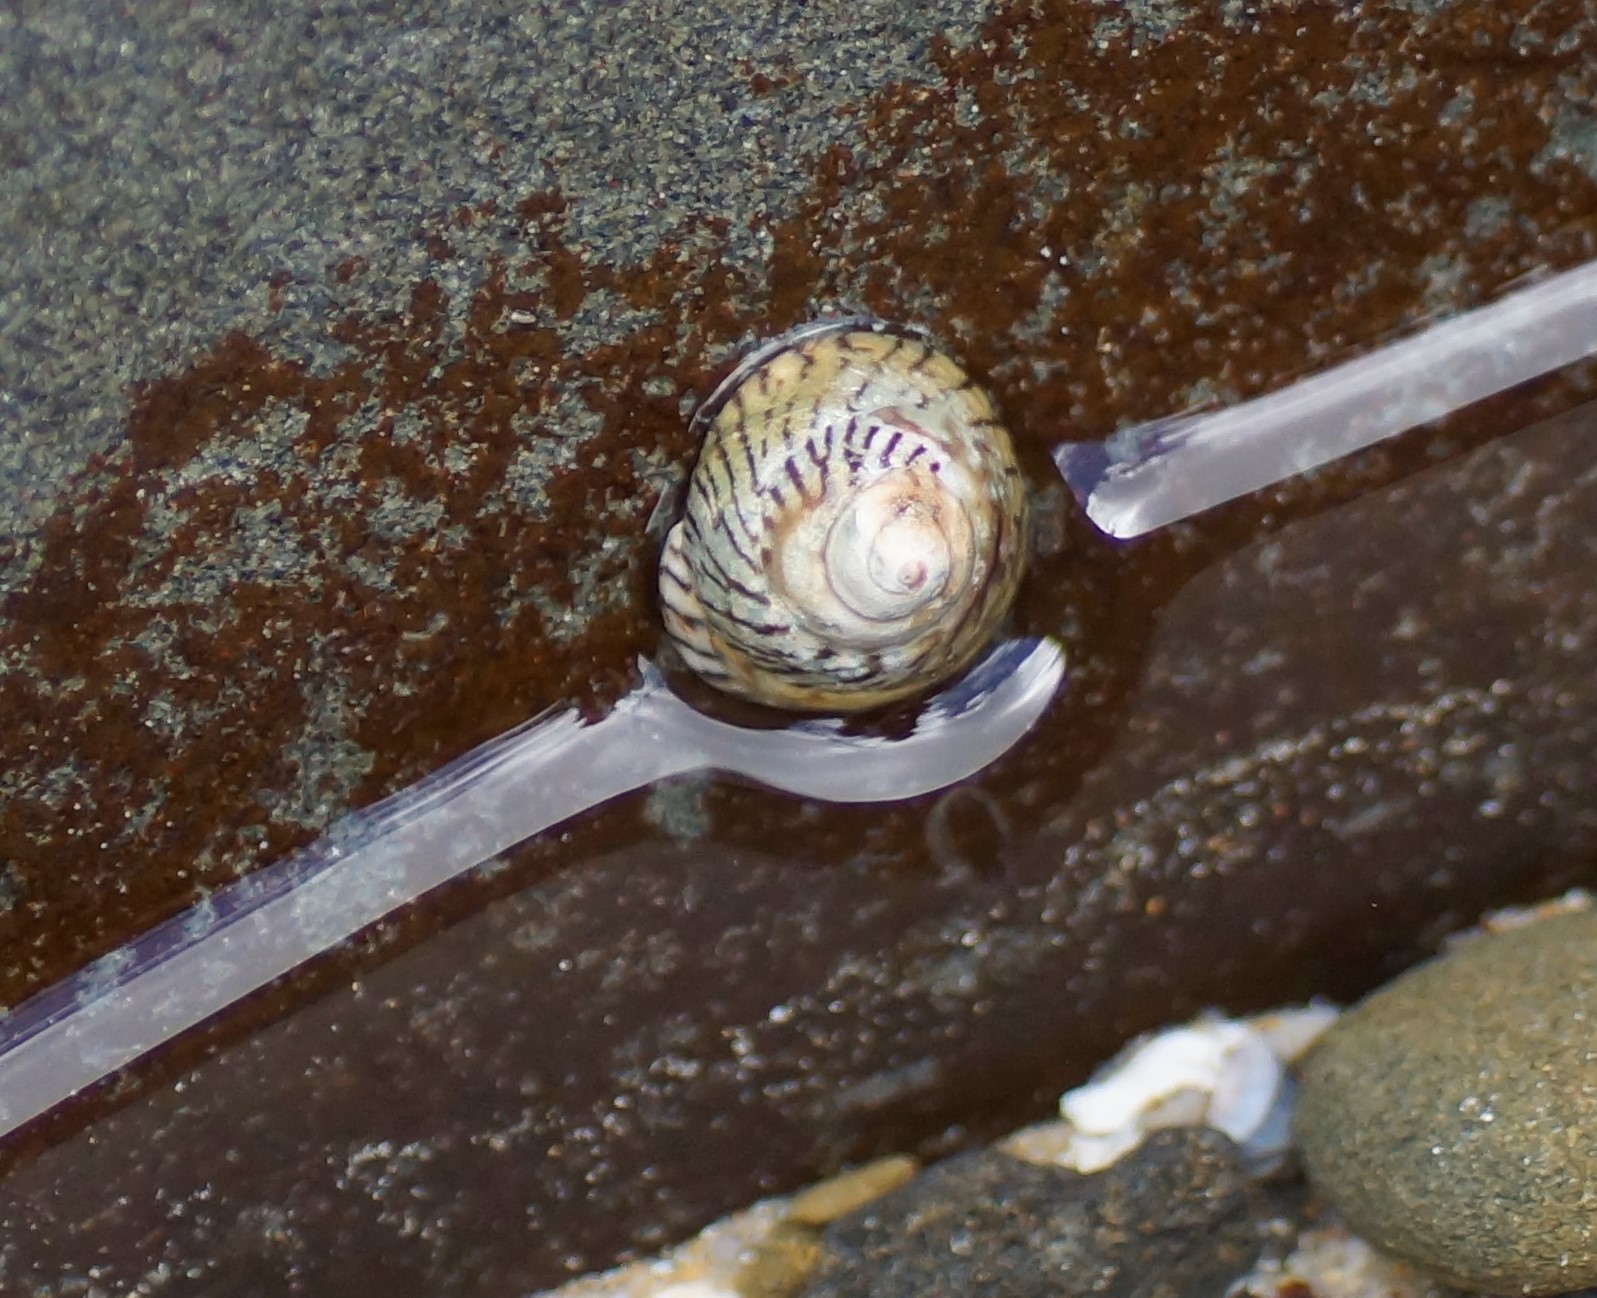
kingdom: Animalia
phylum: Mollusca
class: Gastropoda
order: Littorinimorpha
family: Littorinidae
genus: Bembicium
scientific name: Bembicium nanum
